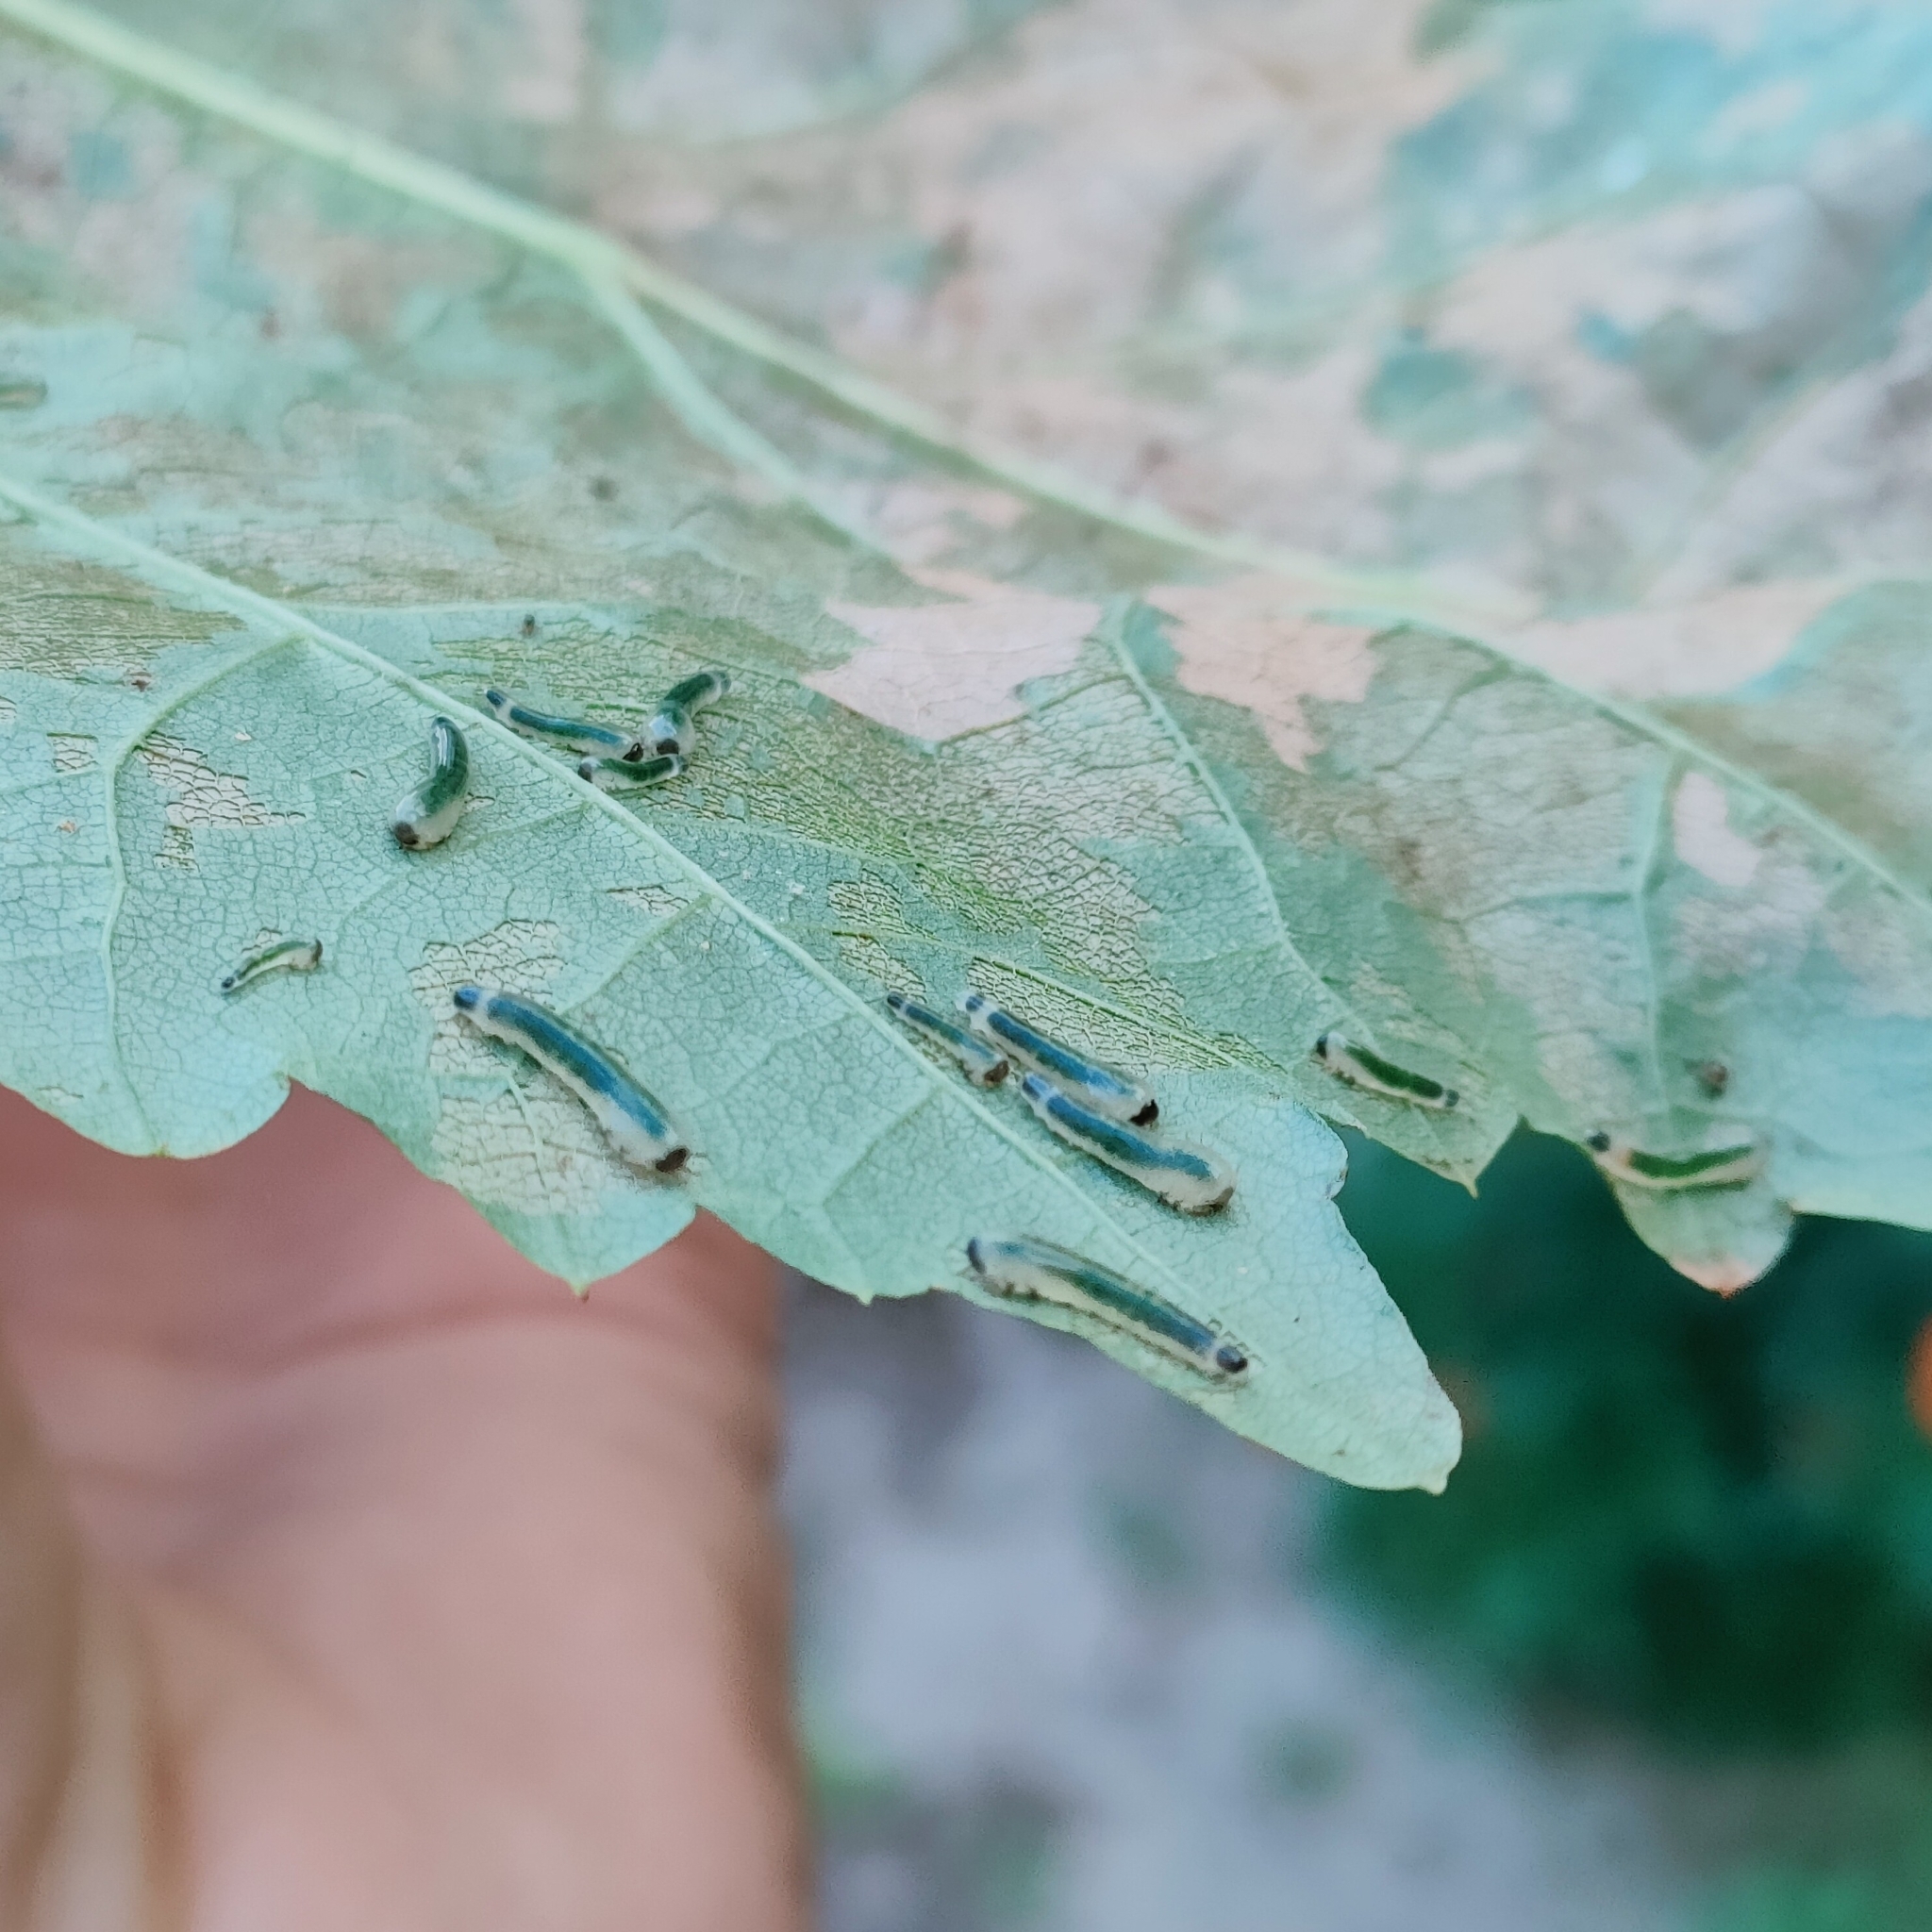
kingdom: Animalia
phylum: Arthropoda
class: Insecta
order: Hymenoptera
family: Tenthredinidae
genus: Caliroa
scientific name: Caliroa annulipes
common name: Wasp
